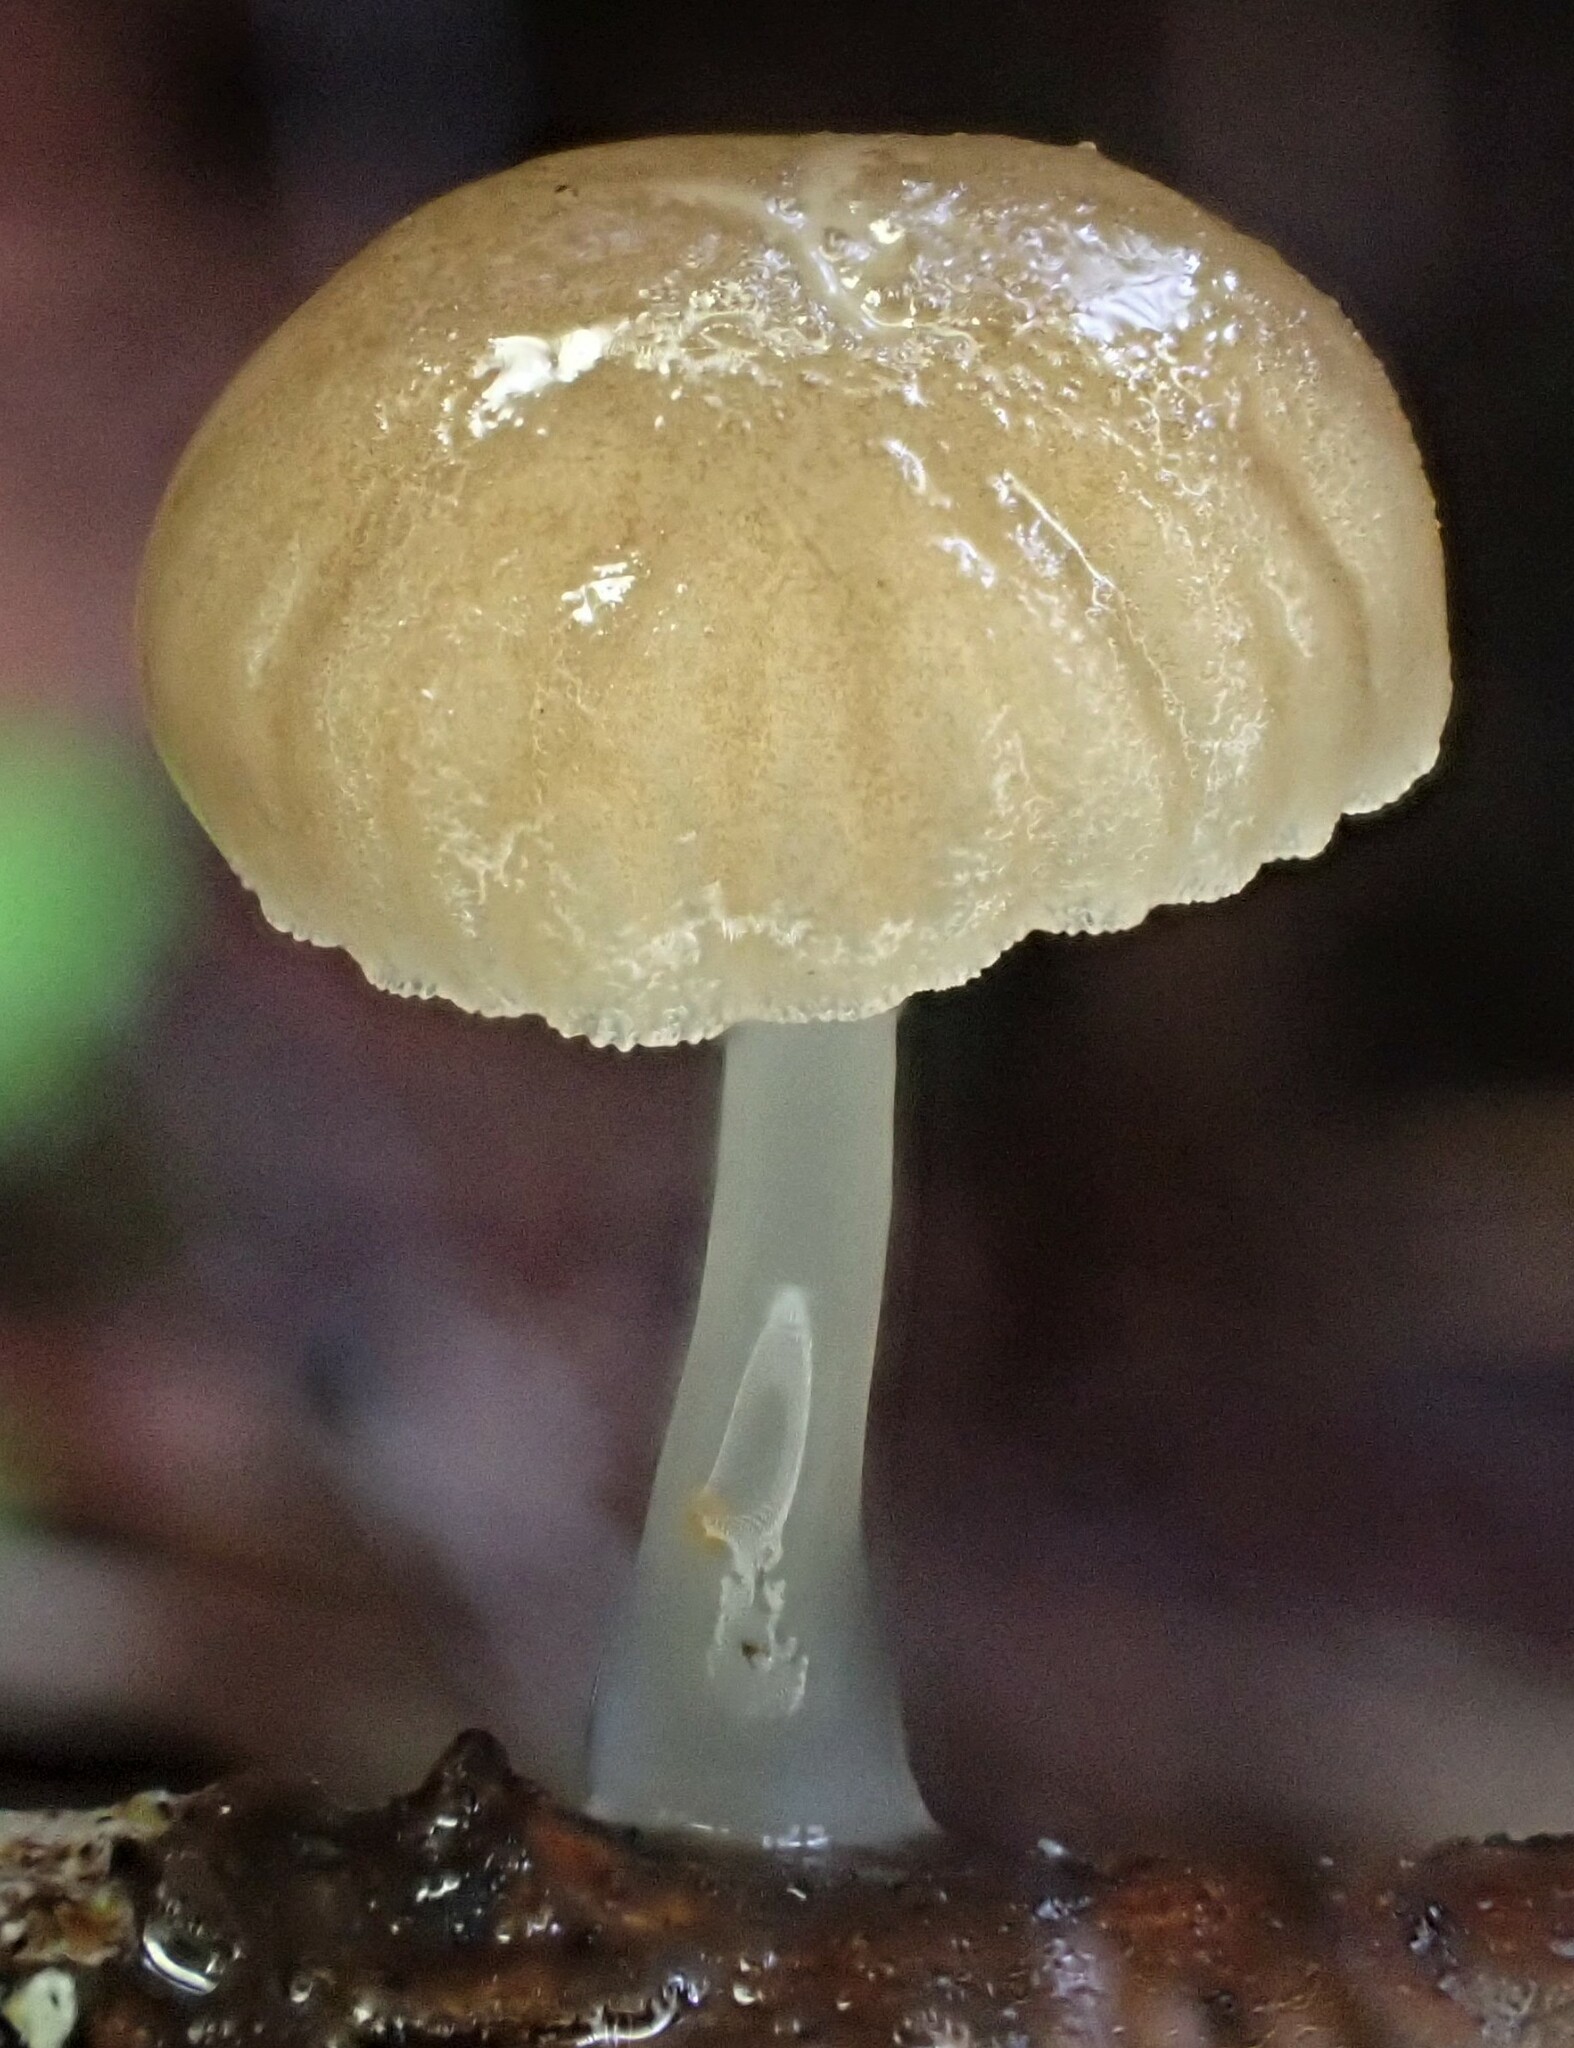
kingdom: Fungi
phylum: Basidiomycota
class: Agaricomycetes
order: Agaricales
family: Mycenaceae
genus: Roridomyces
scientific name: Roridomyces austrororidus
